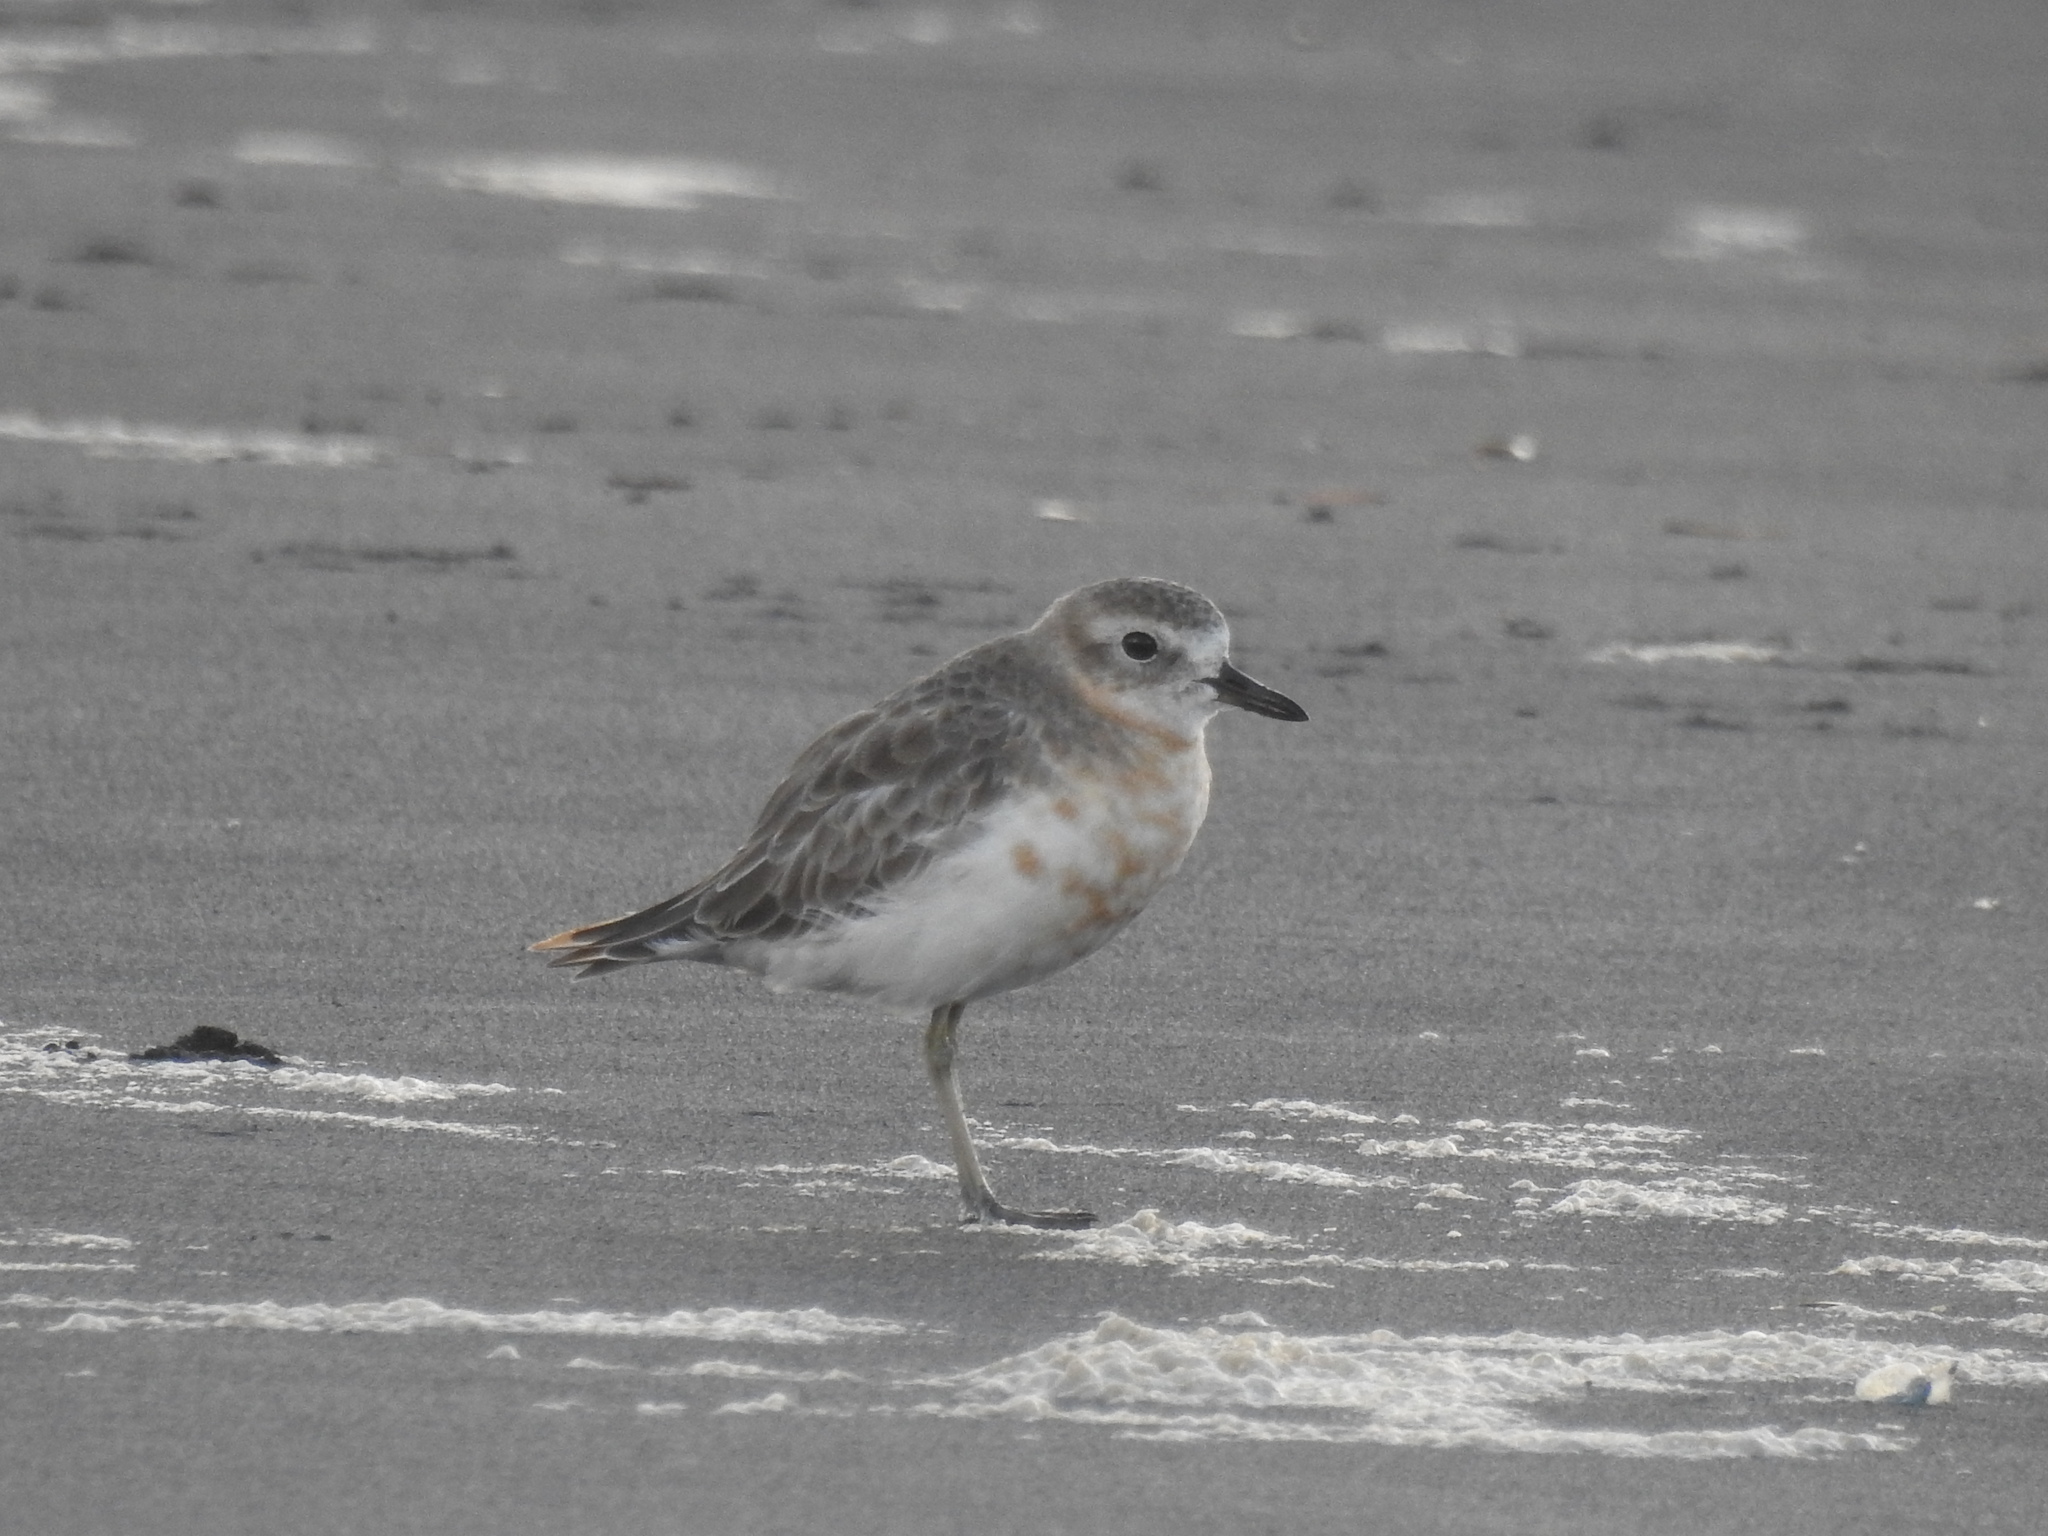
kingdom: Animalia
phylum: Chordata
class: Aves
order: Charadriiformes
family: Charadriidae
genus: Anarhynchus
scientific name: Anarhynchus
